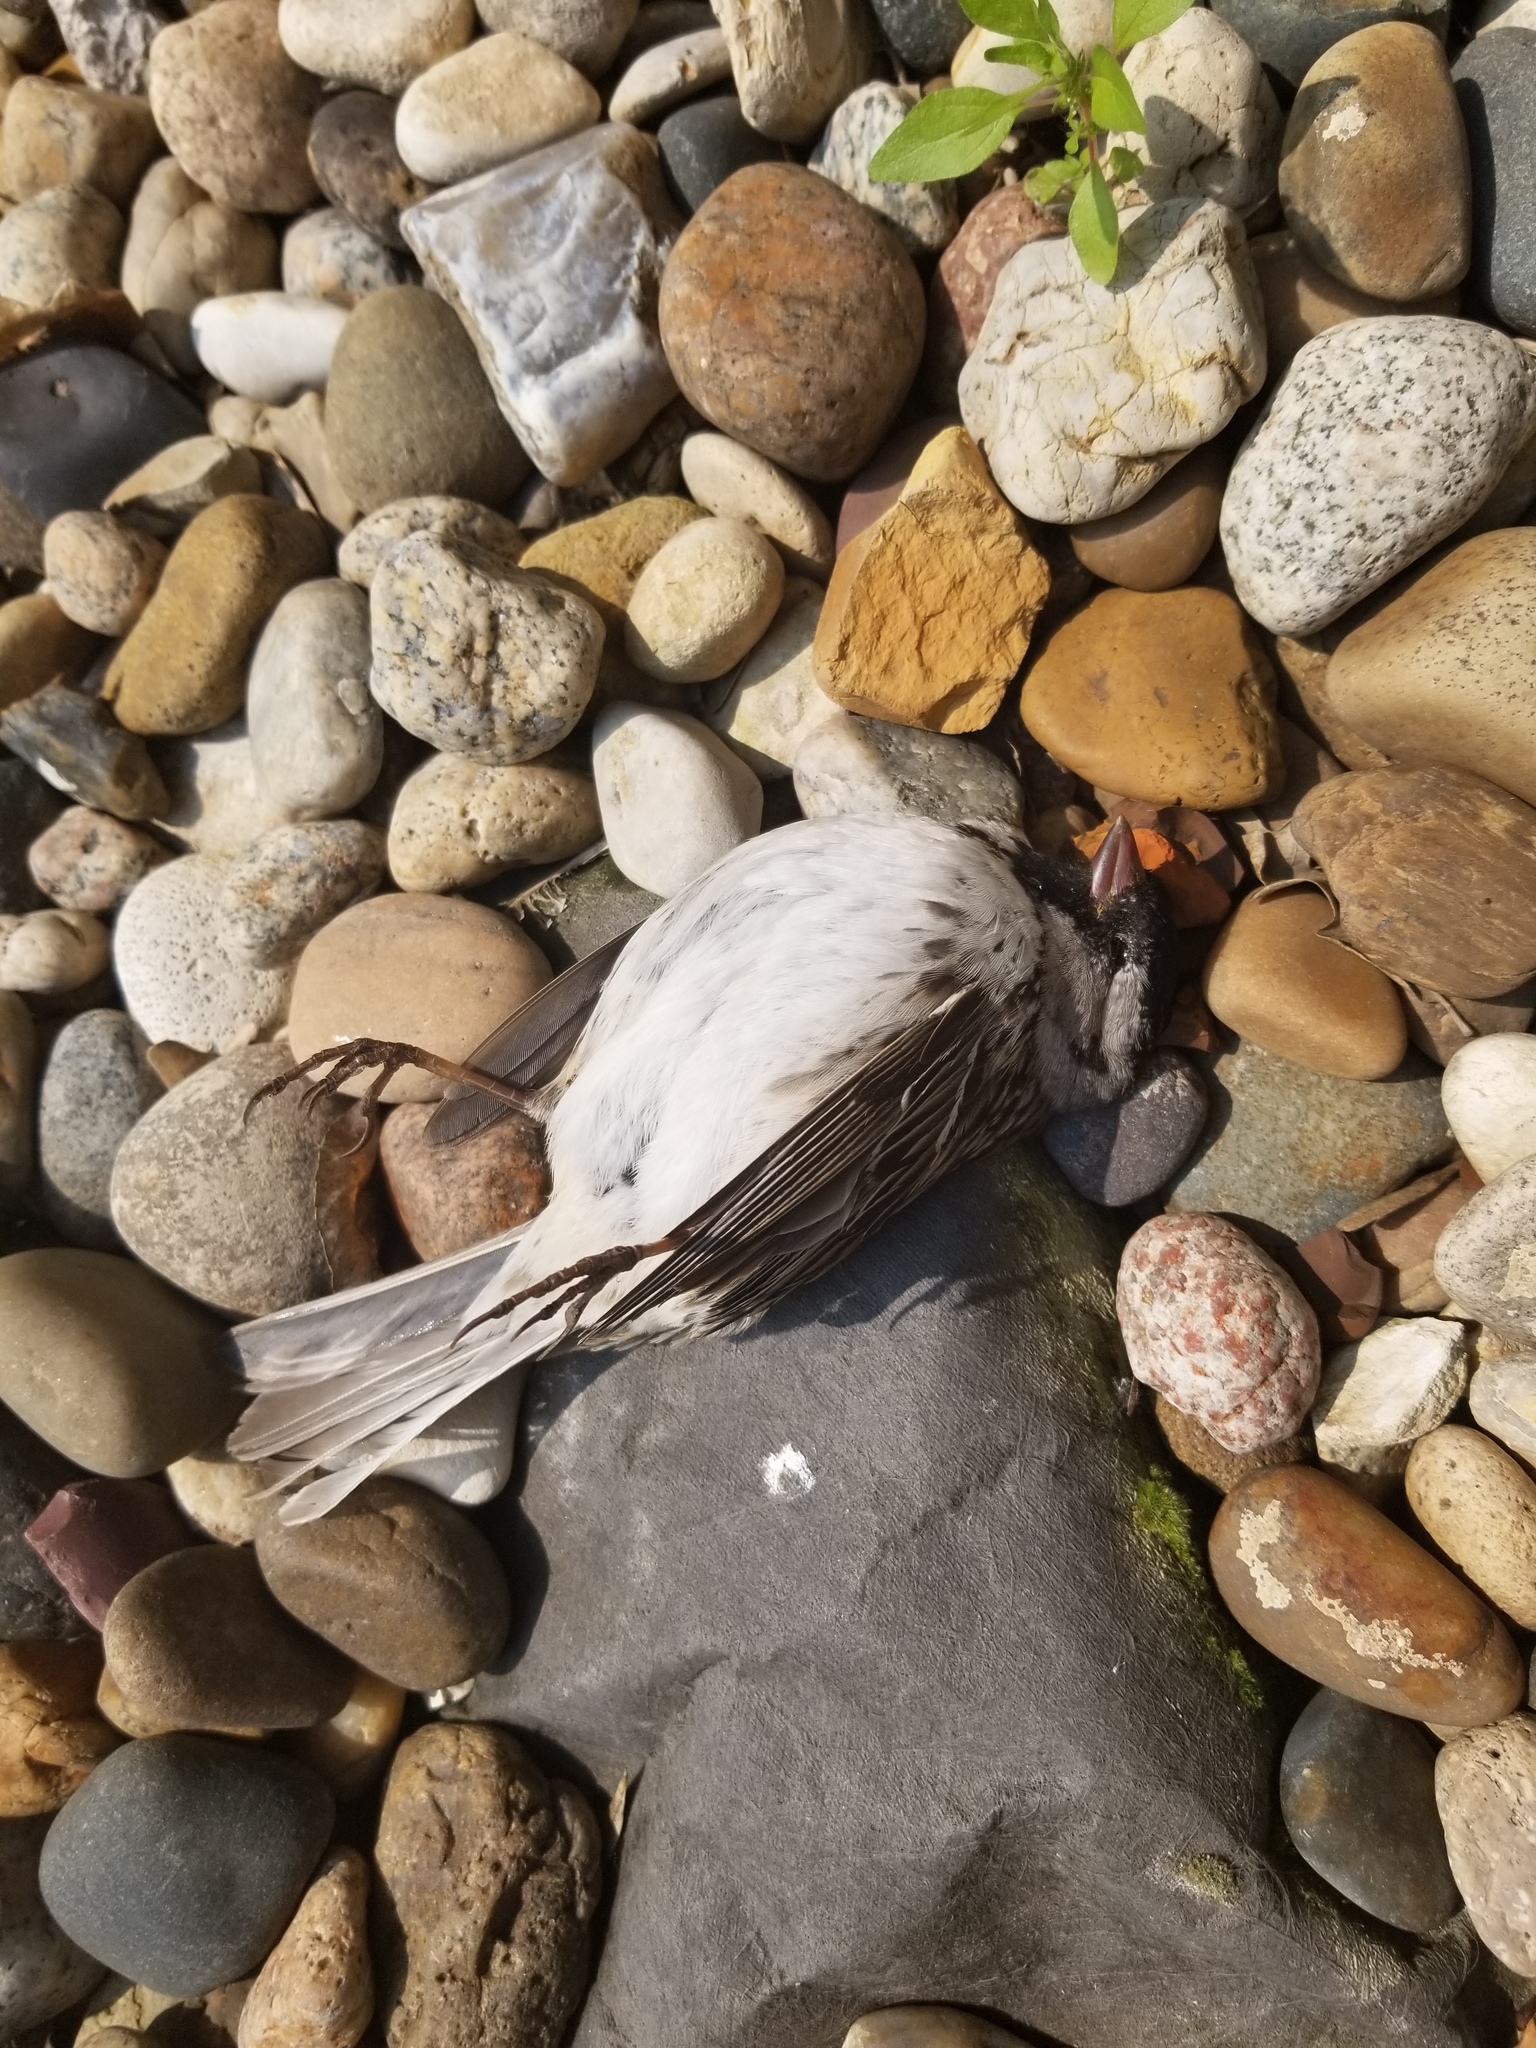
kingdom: Animalia
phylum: Chordata
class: Aves
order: Passeriformes
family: Passerellidae
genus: Zonotrichia
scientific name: Zonotrichia querula
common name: Harris's sparrow
